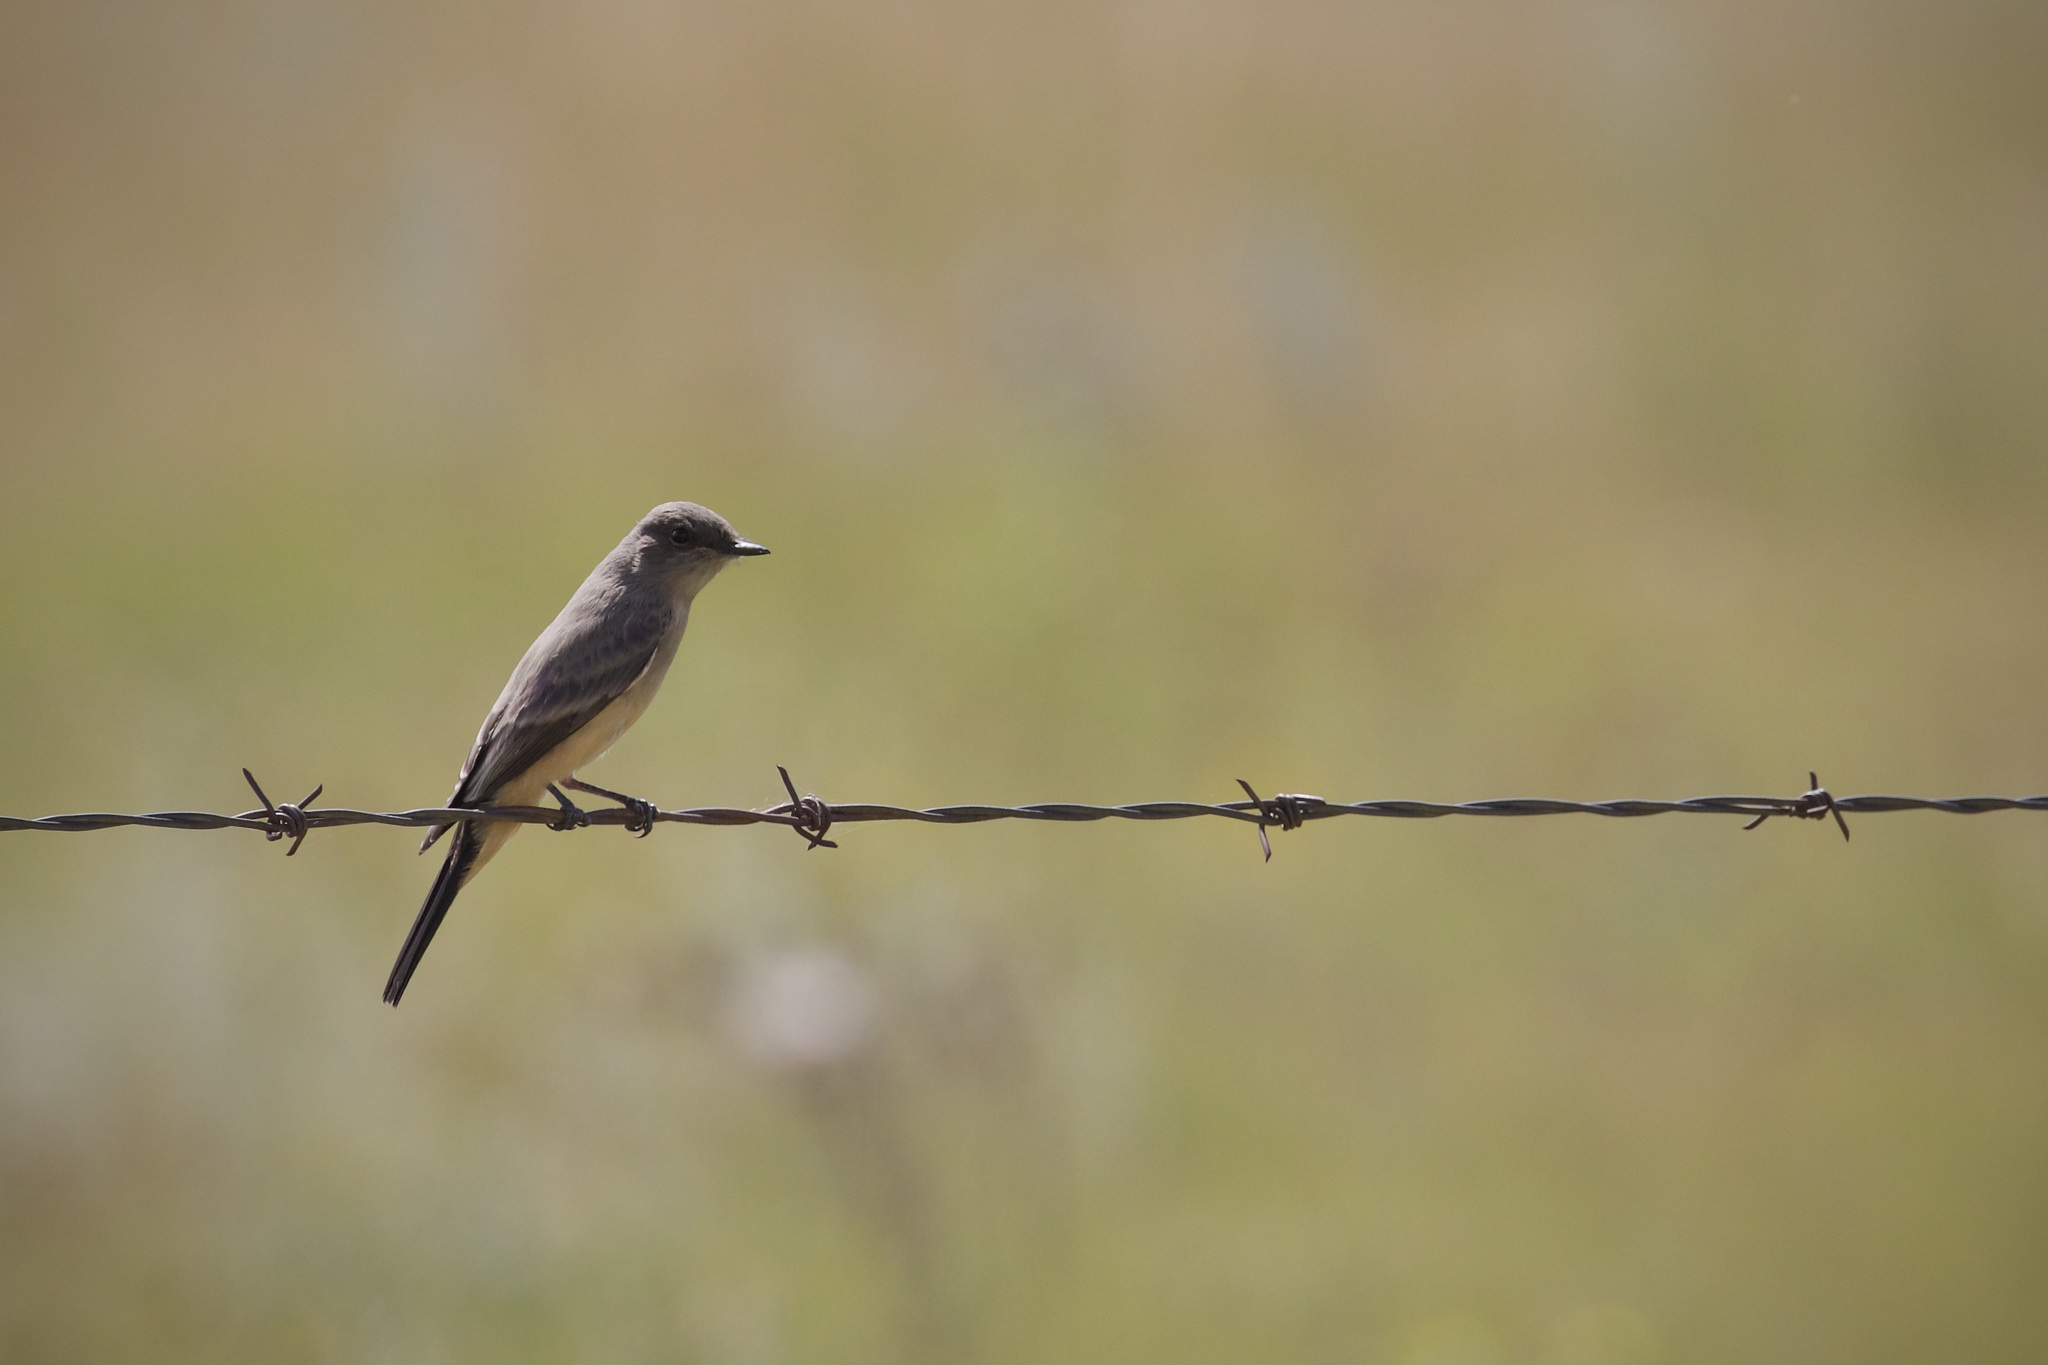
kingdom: Animalia
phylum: Chordata
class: Aves
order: Passeriformes
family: Tyrannidae
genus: Sayornis
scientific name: Sayornis saya
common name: Say's phoebe
